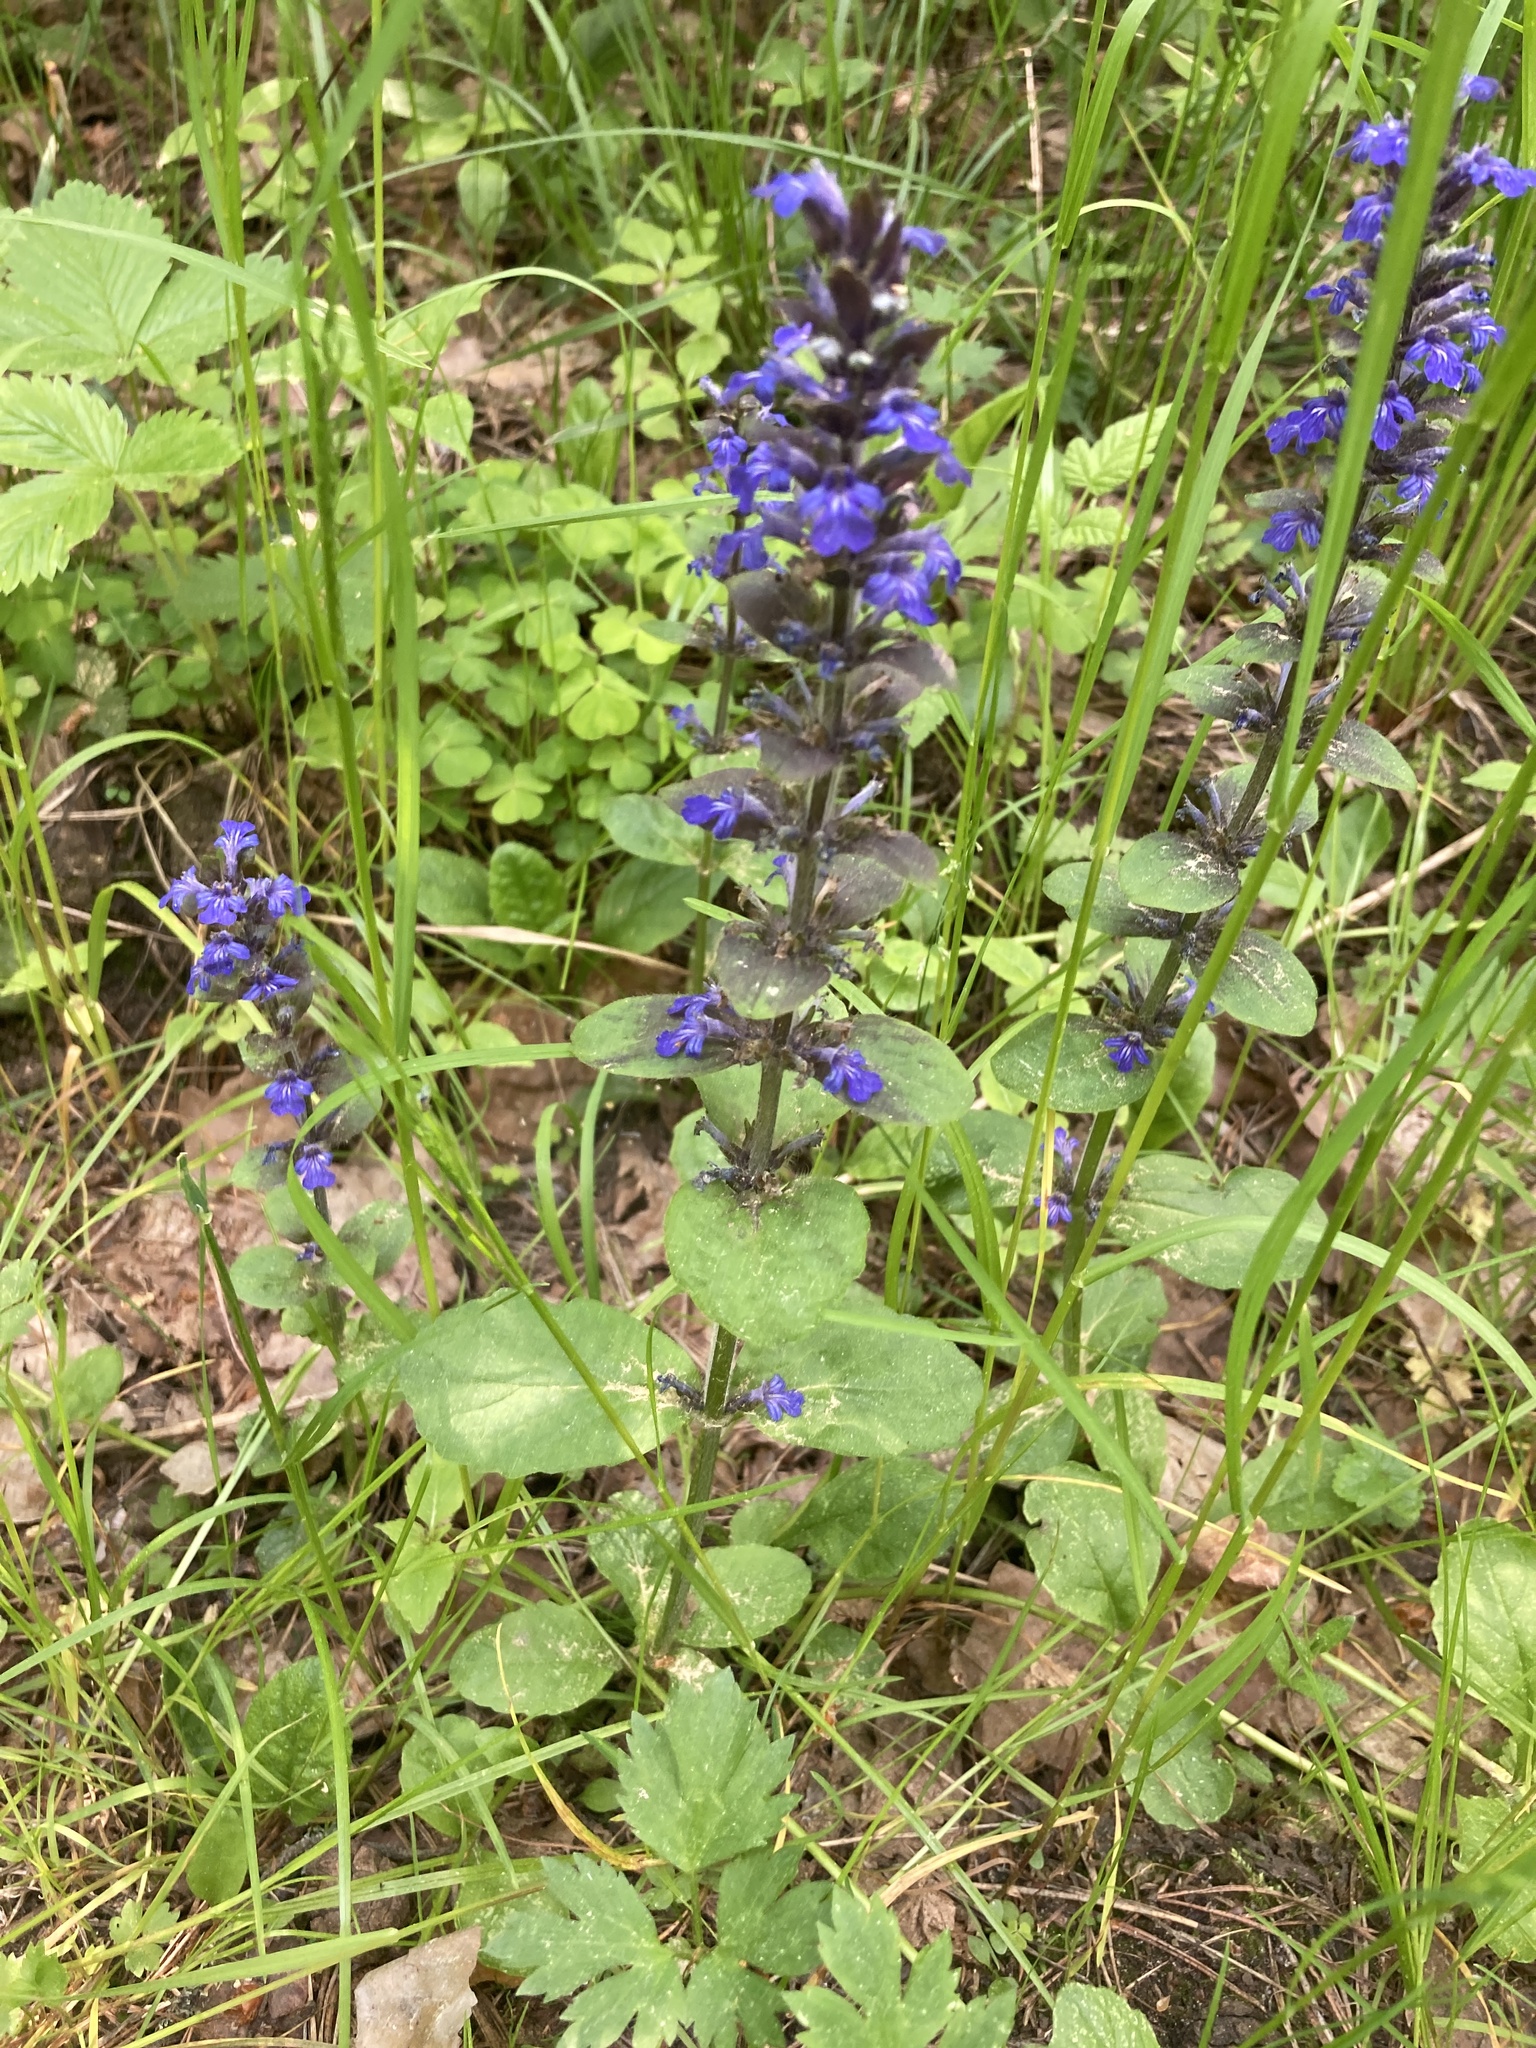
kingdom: Plantae
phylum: Tracheophyta
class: Magnoliopsida
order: Lamiales
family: Lamiaceae
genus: Ajuga
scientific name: Ajuga reptans
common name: Bugle
